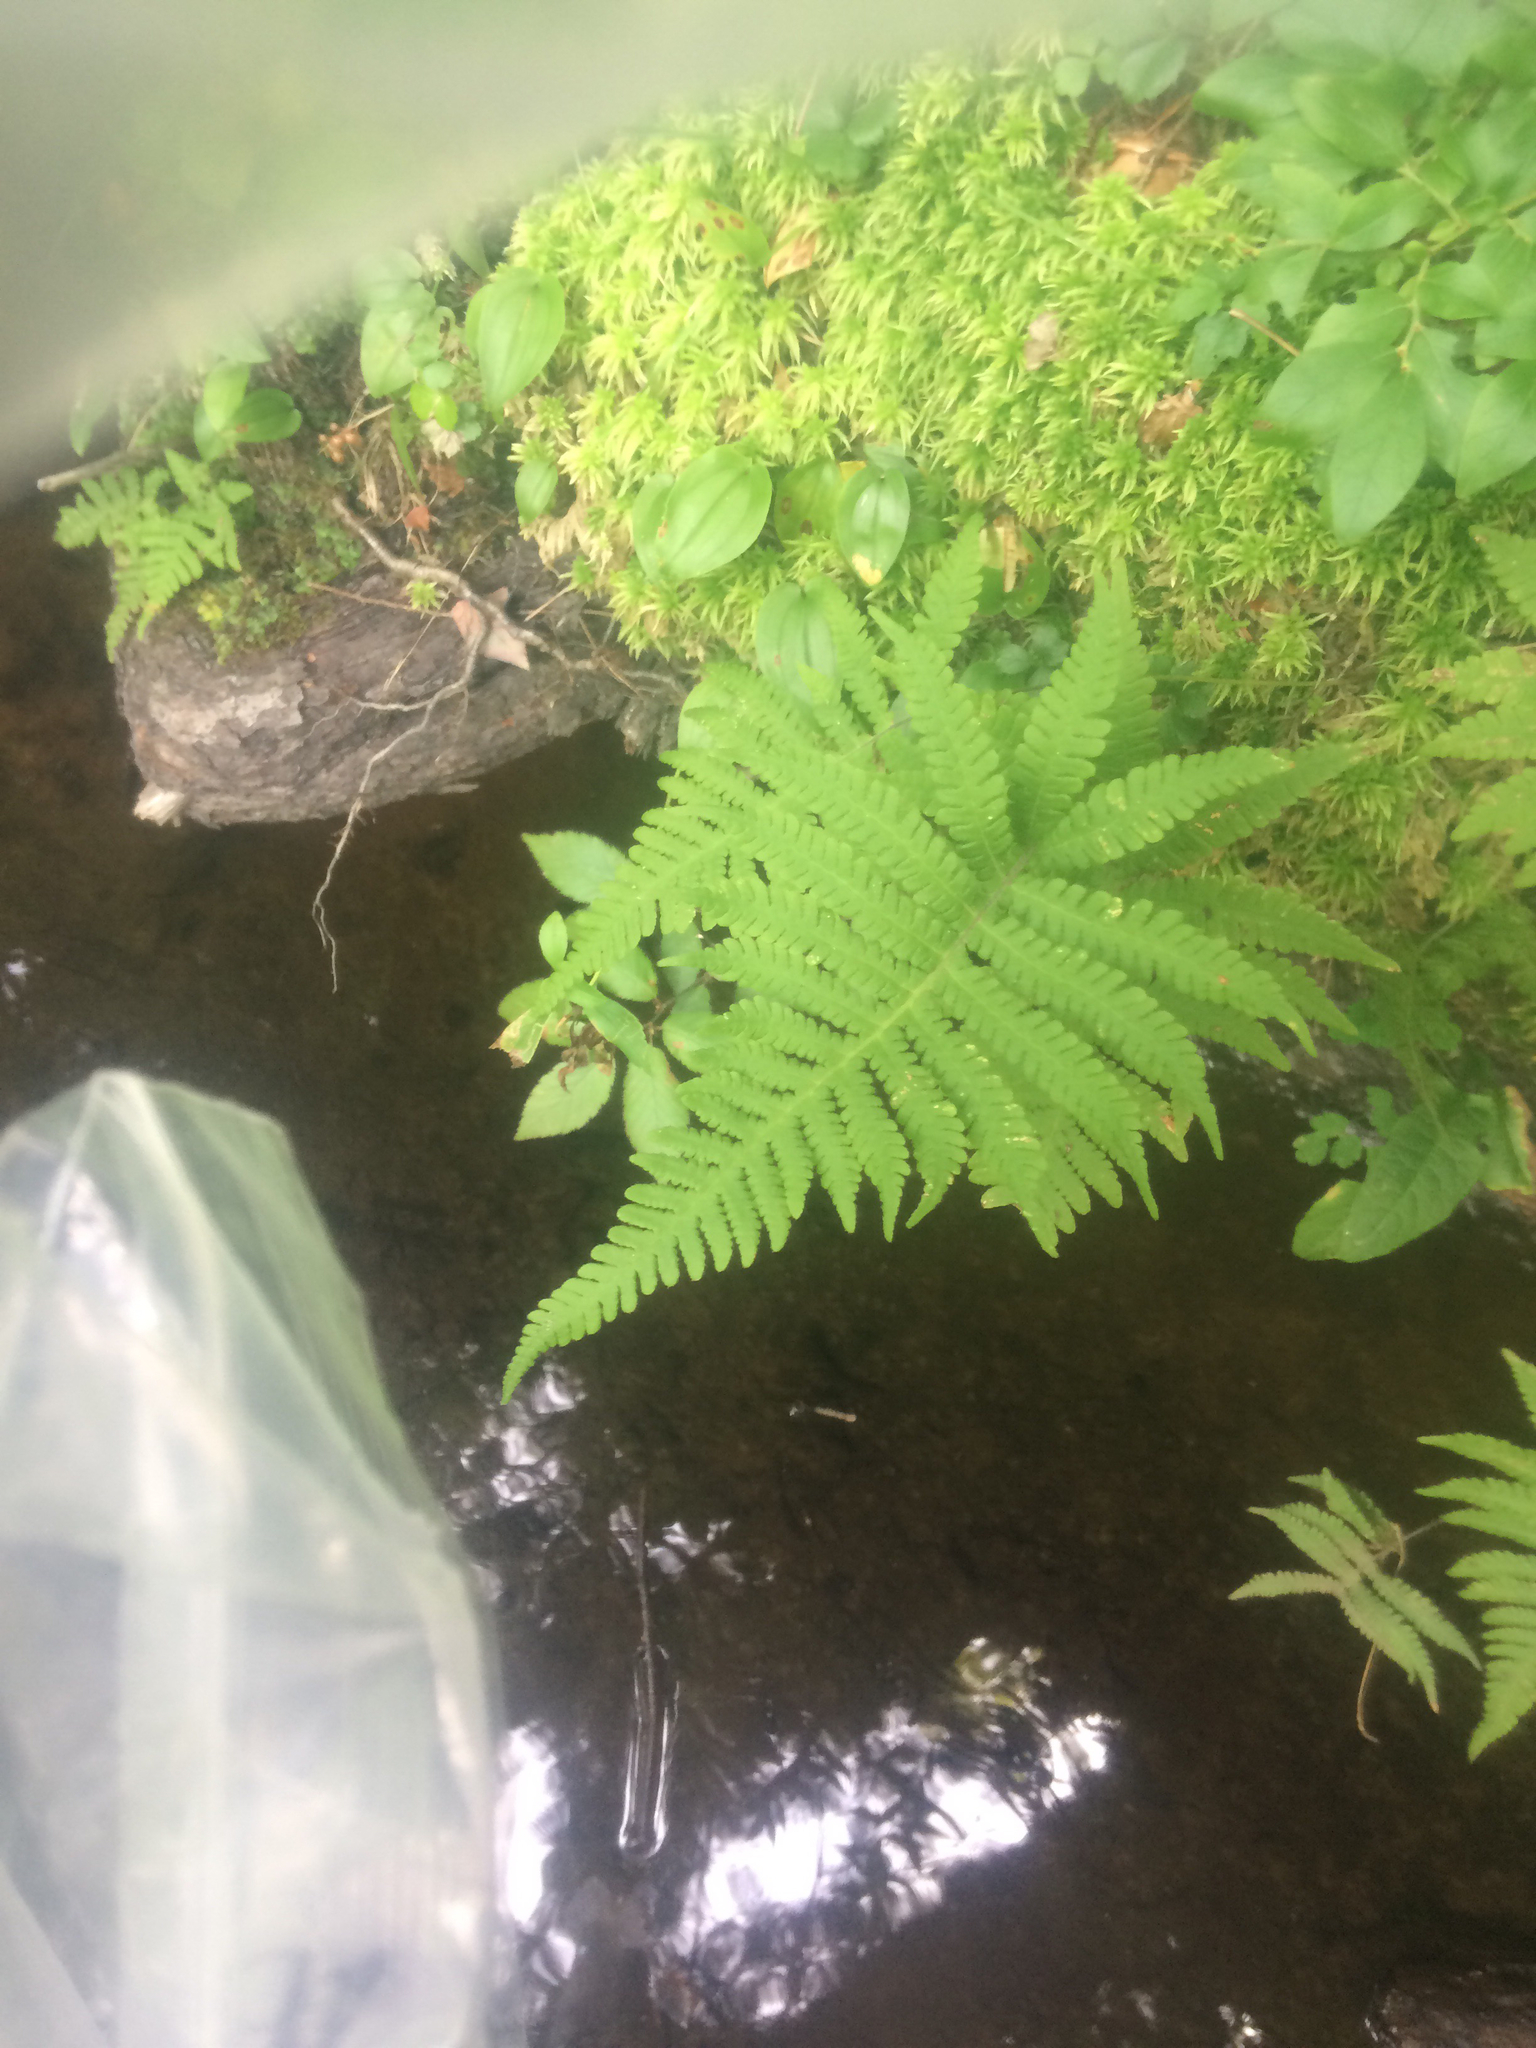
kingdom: Plantae
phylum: Tracheophyta
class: Polypodiopsida
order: Polypodiales
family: Thelypteridaceae
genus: Phegopteris
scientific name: Phegopteris connectilis
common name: Beech fern
